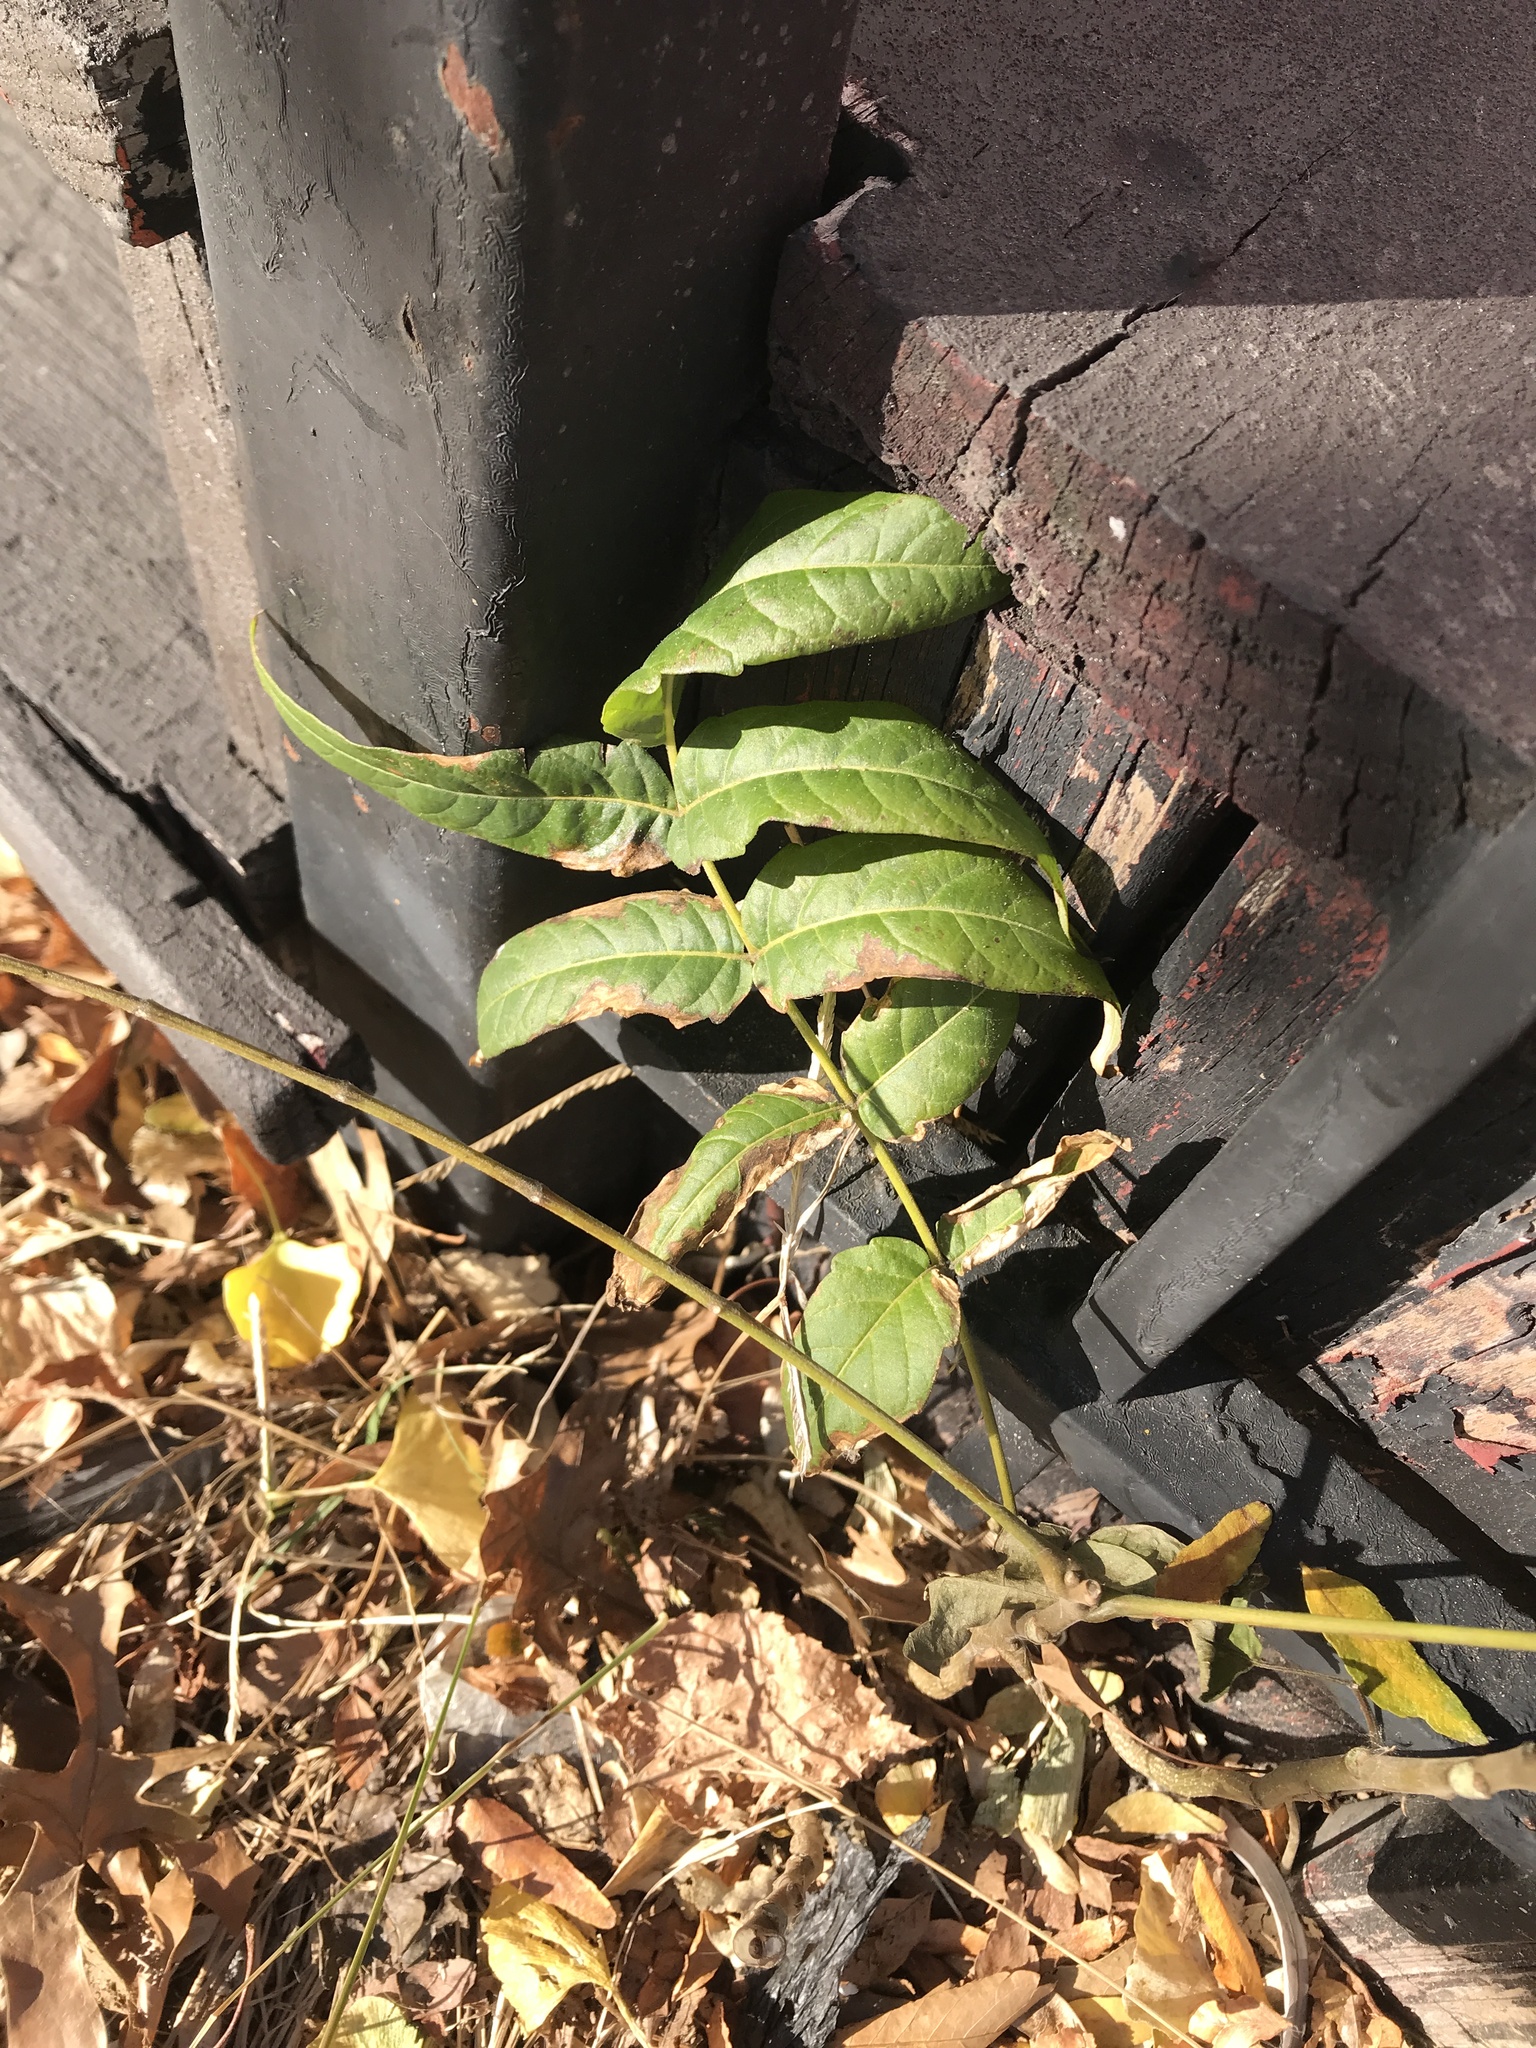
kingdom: Plantae
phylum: Tracheophyta
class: Magnoliopsida
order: Sapindales
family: Simaroubaceae
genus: Ailanthus
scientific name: Ailanthus altissima
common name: Tree-of-heaven
